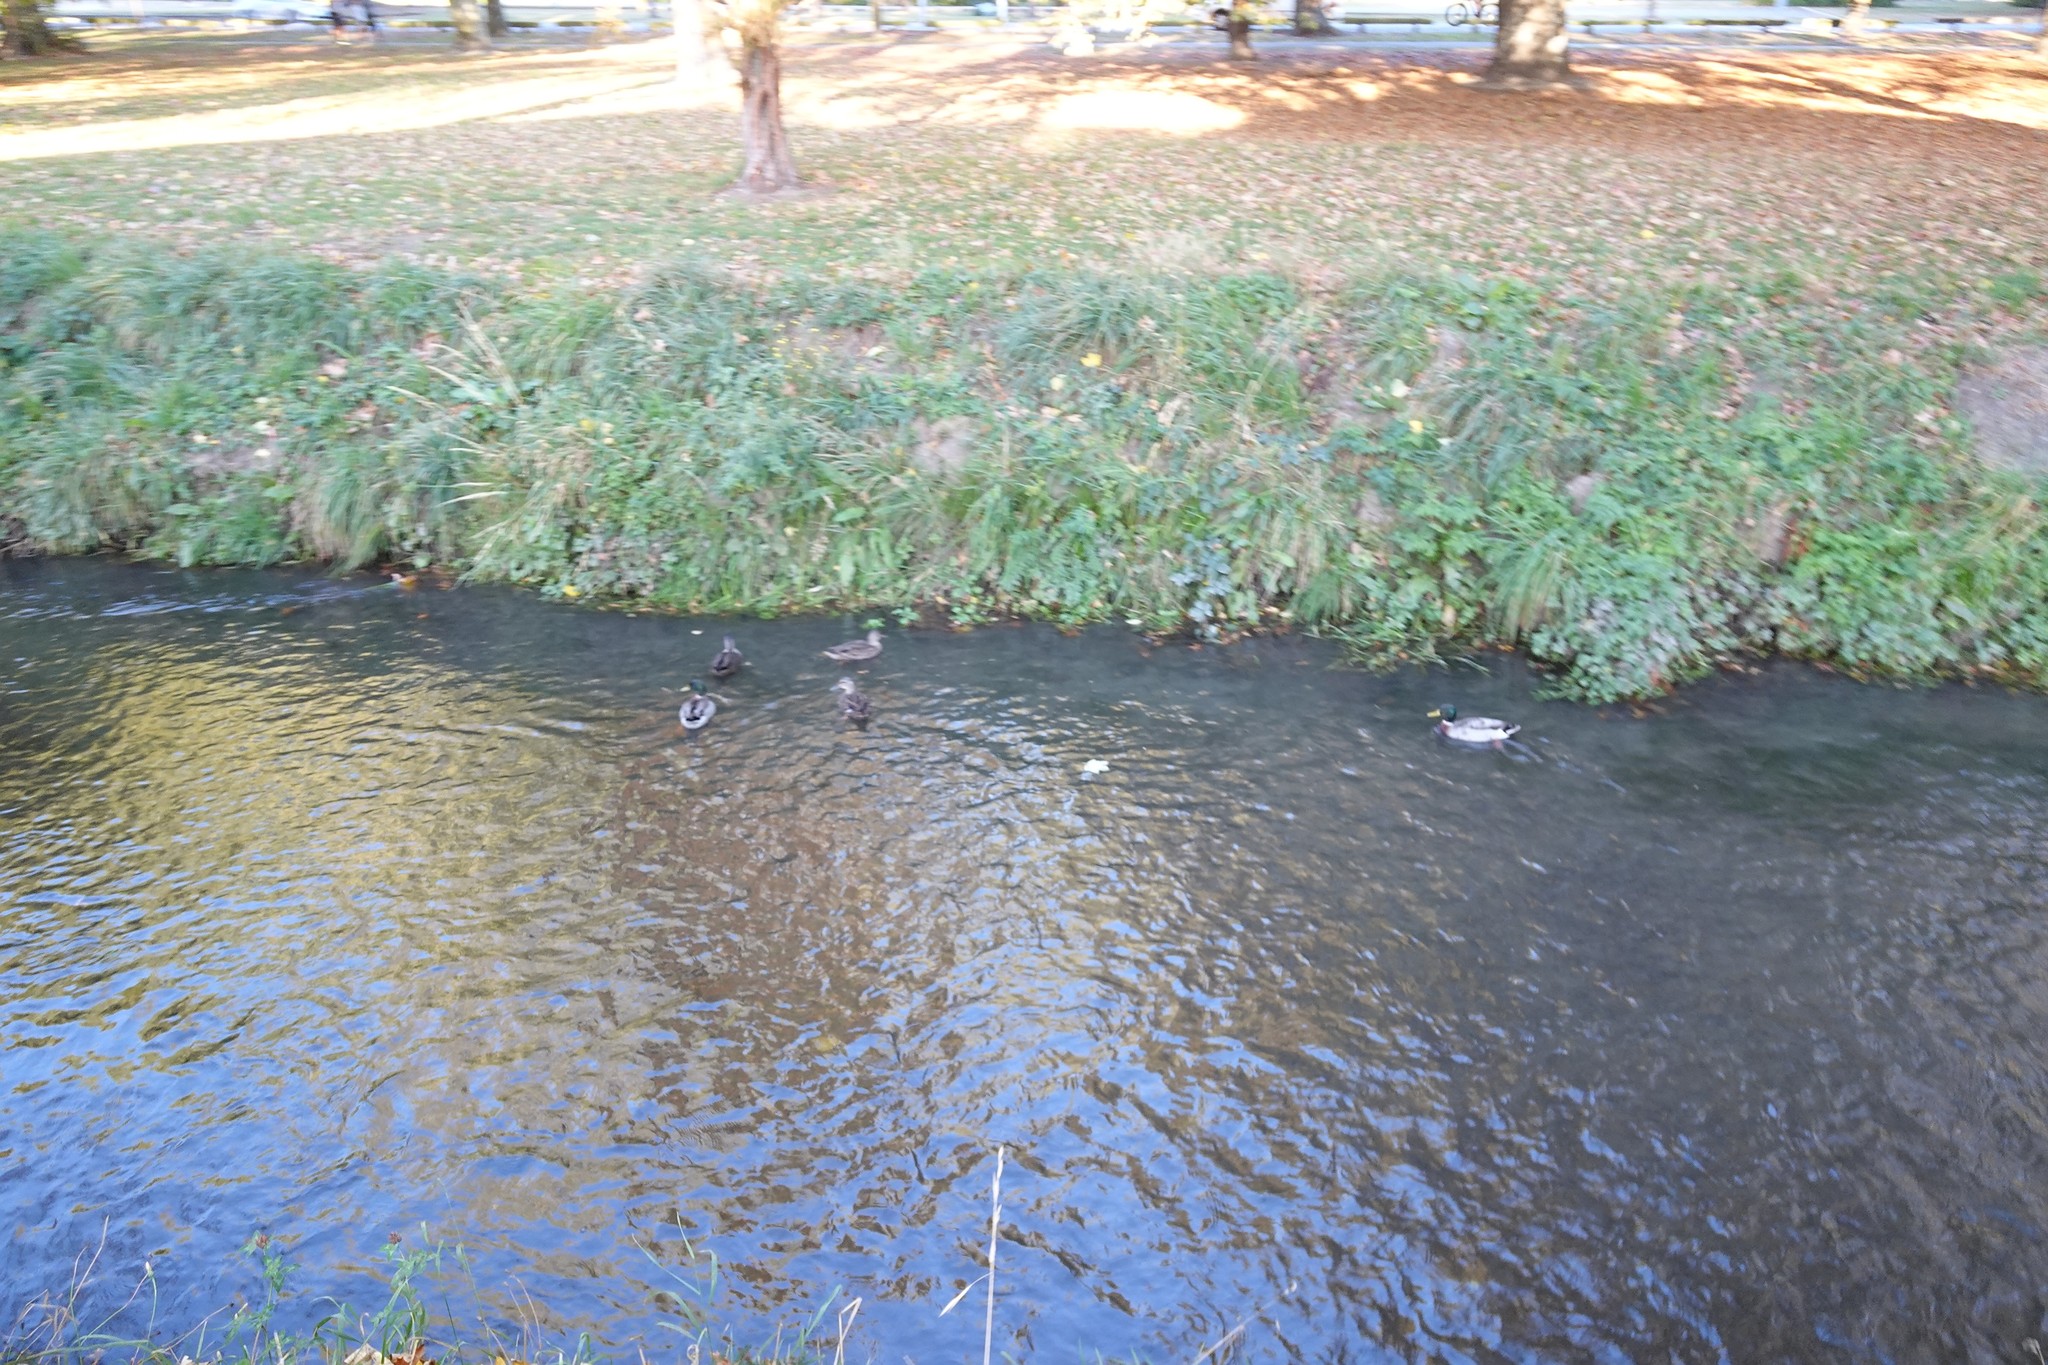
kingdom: Animalia
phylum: Chordata
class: Aves
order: Anseriformes
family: Anatidae
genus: Anas
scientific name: Anas platyrhynchos
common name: Mallard
